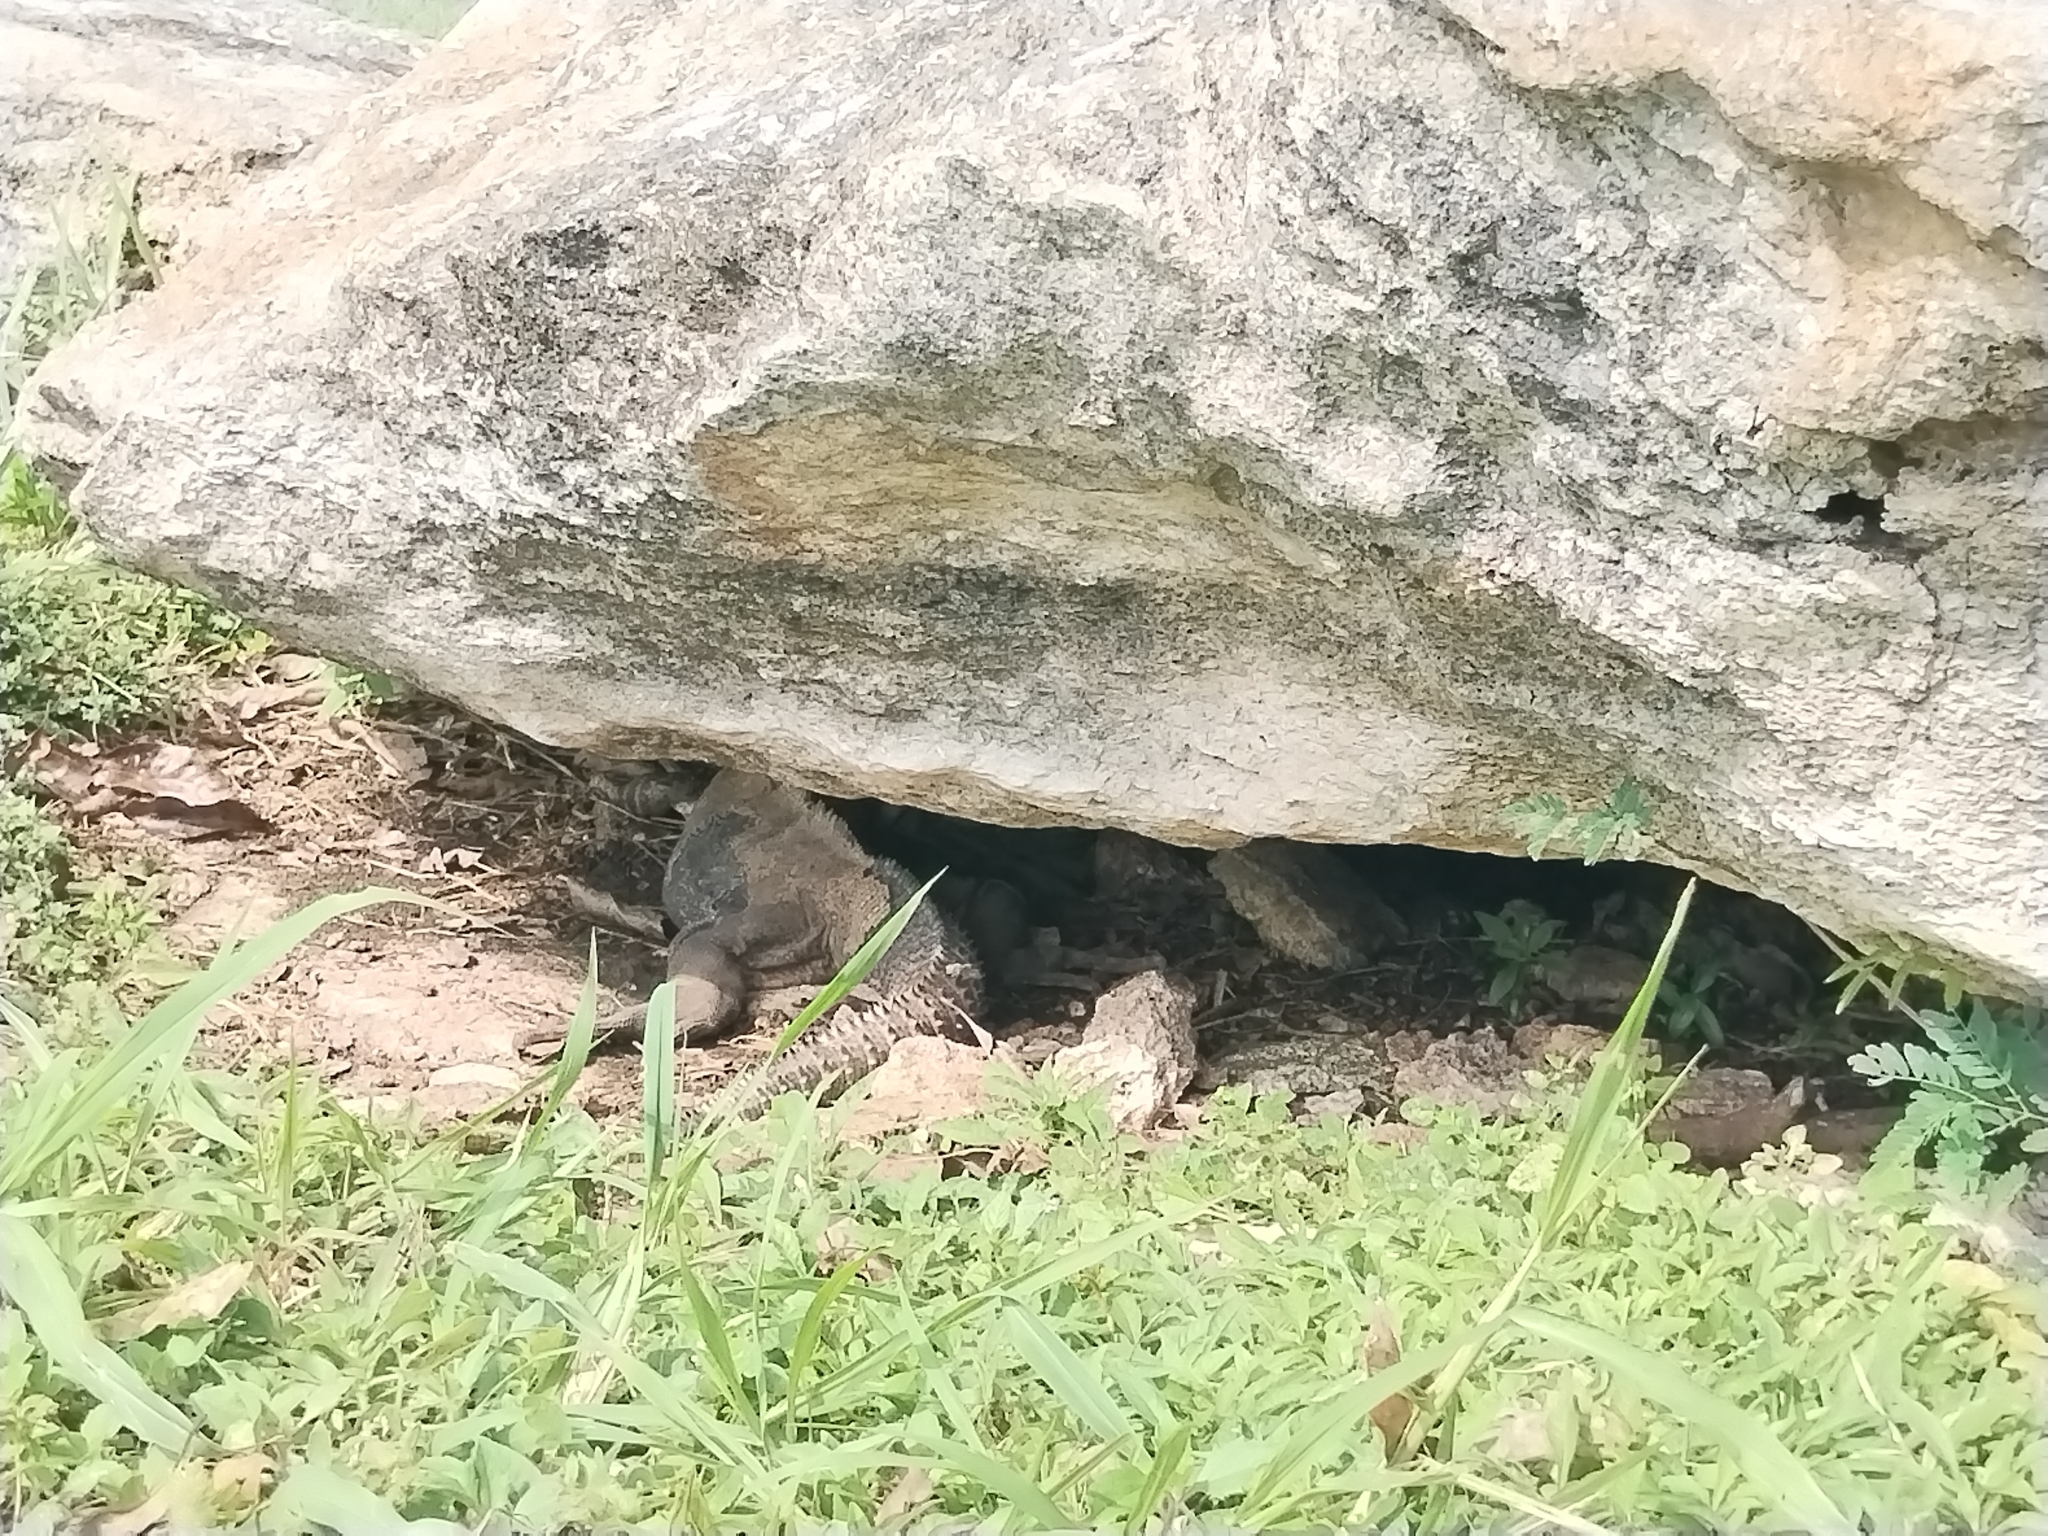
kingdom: Animalia
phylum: Chordata
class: Squamata
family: Iguanidae
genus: Ctenosaura
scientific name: Ctenosaura similis
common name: Black spiny-tailed iguana
